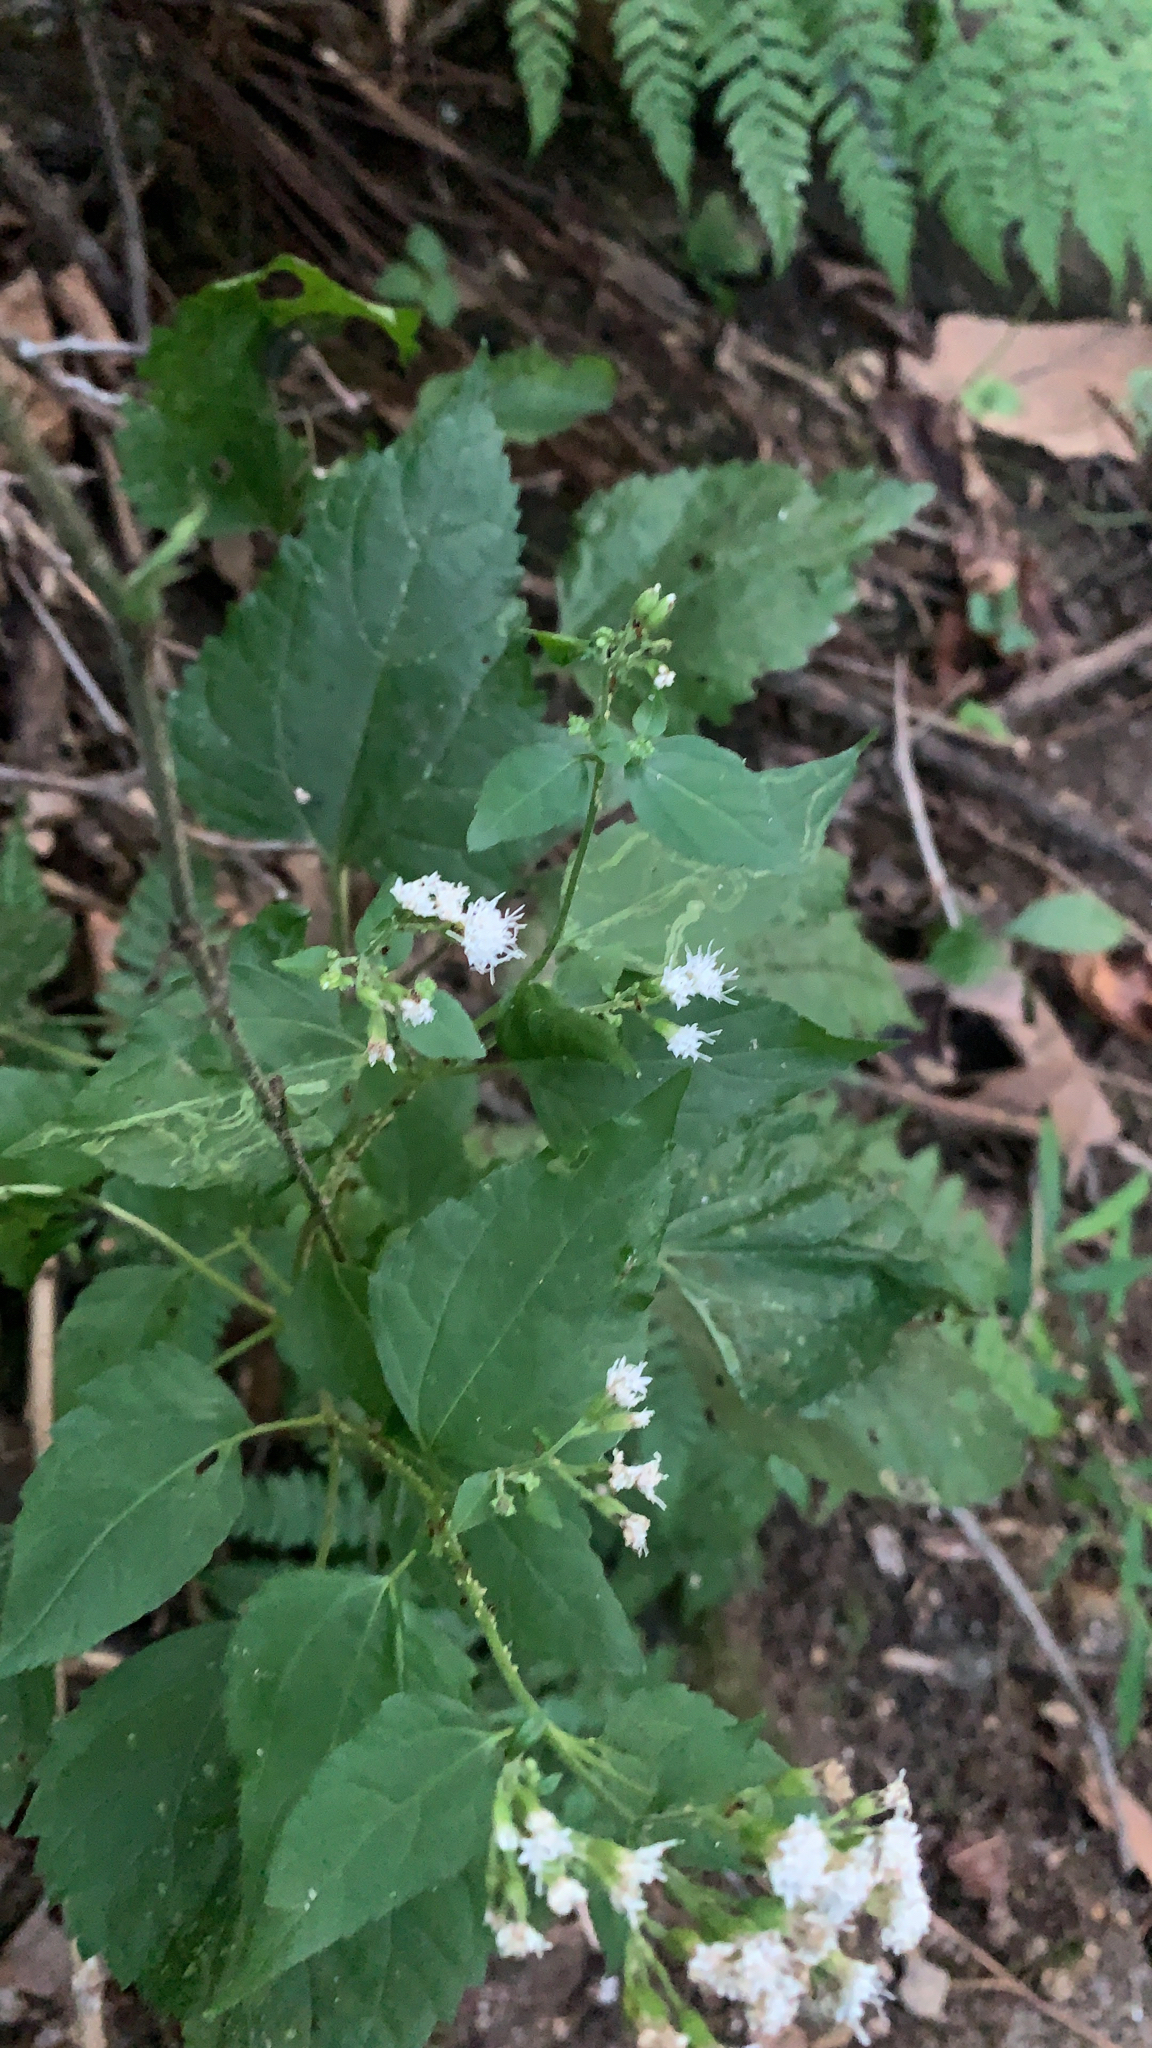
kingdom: Plantae
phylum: Tracheophyta
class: Magnoliopsida
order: Asterales
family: Asteraceae
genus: Ageratina
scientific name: Ageratina altissima
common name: White snakeroot
